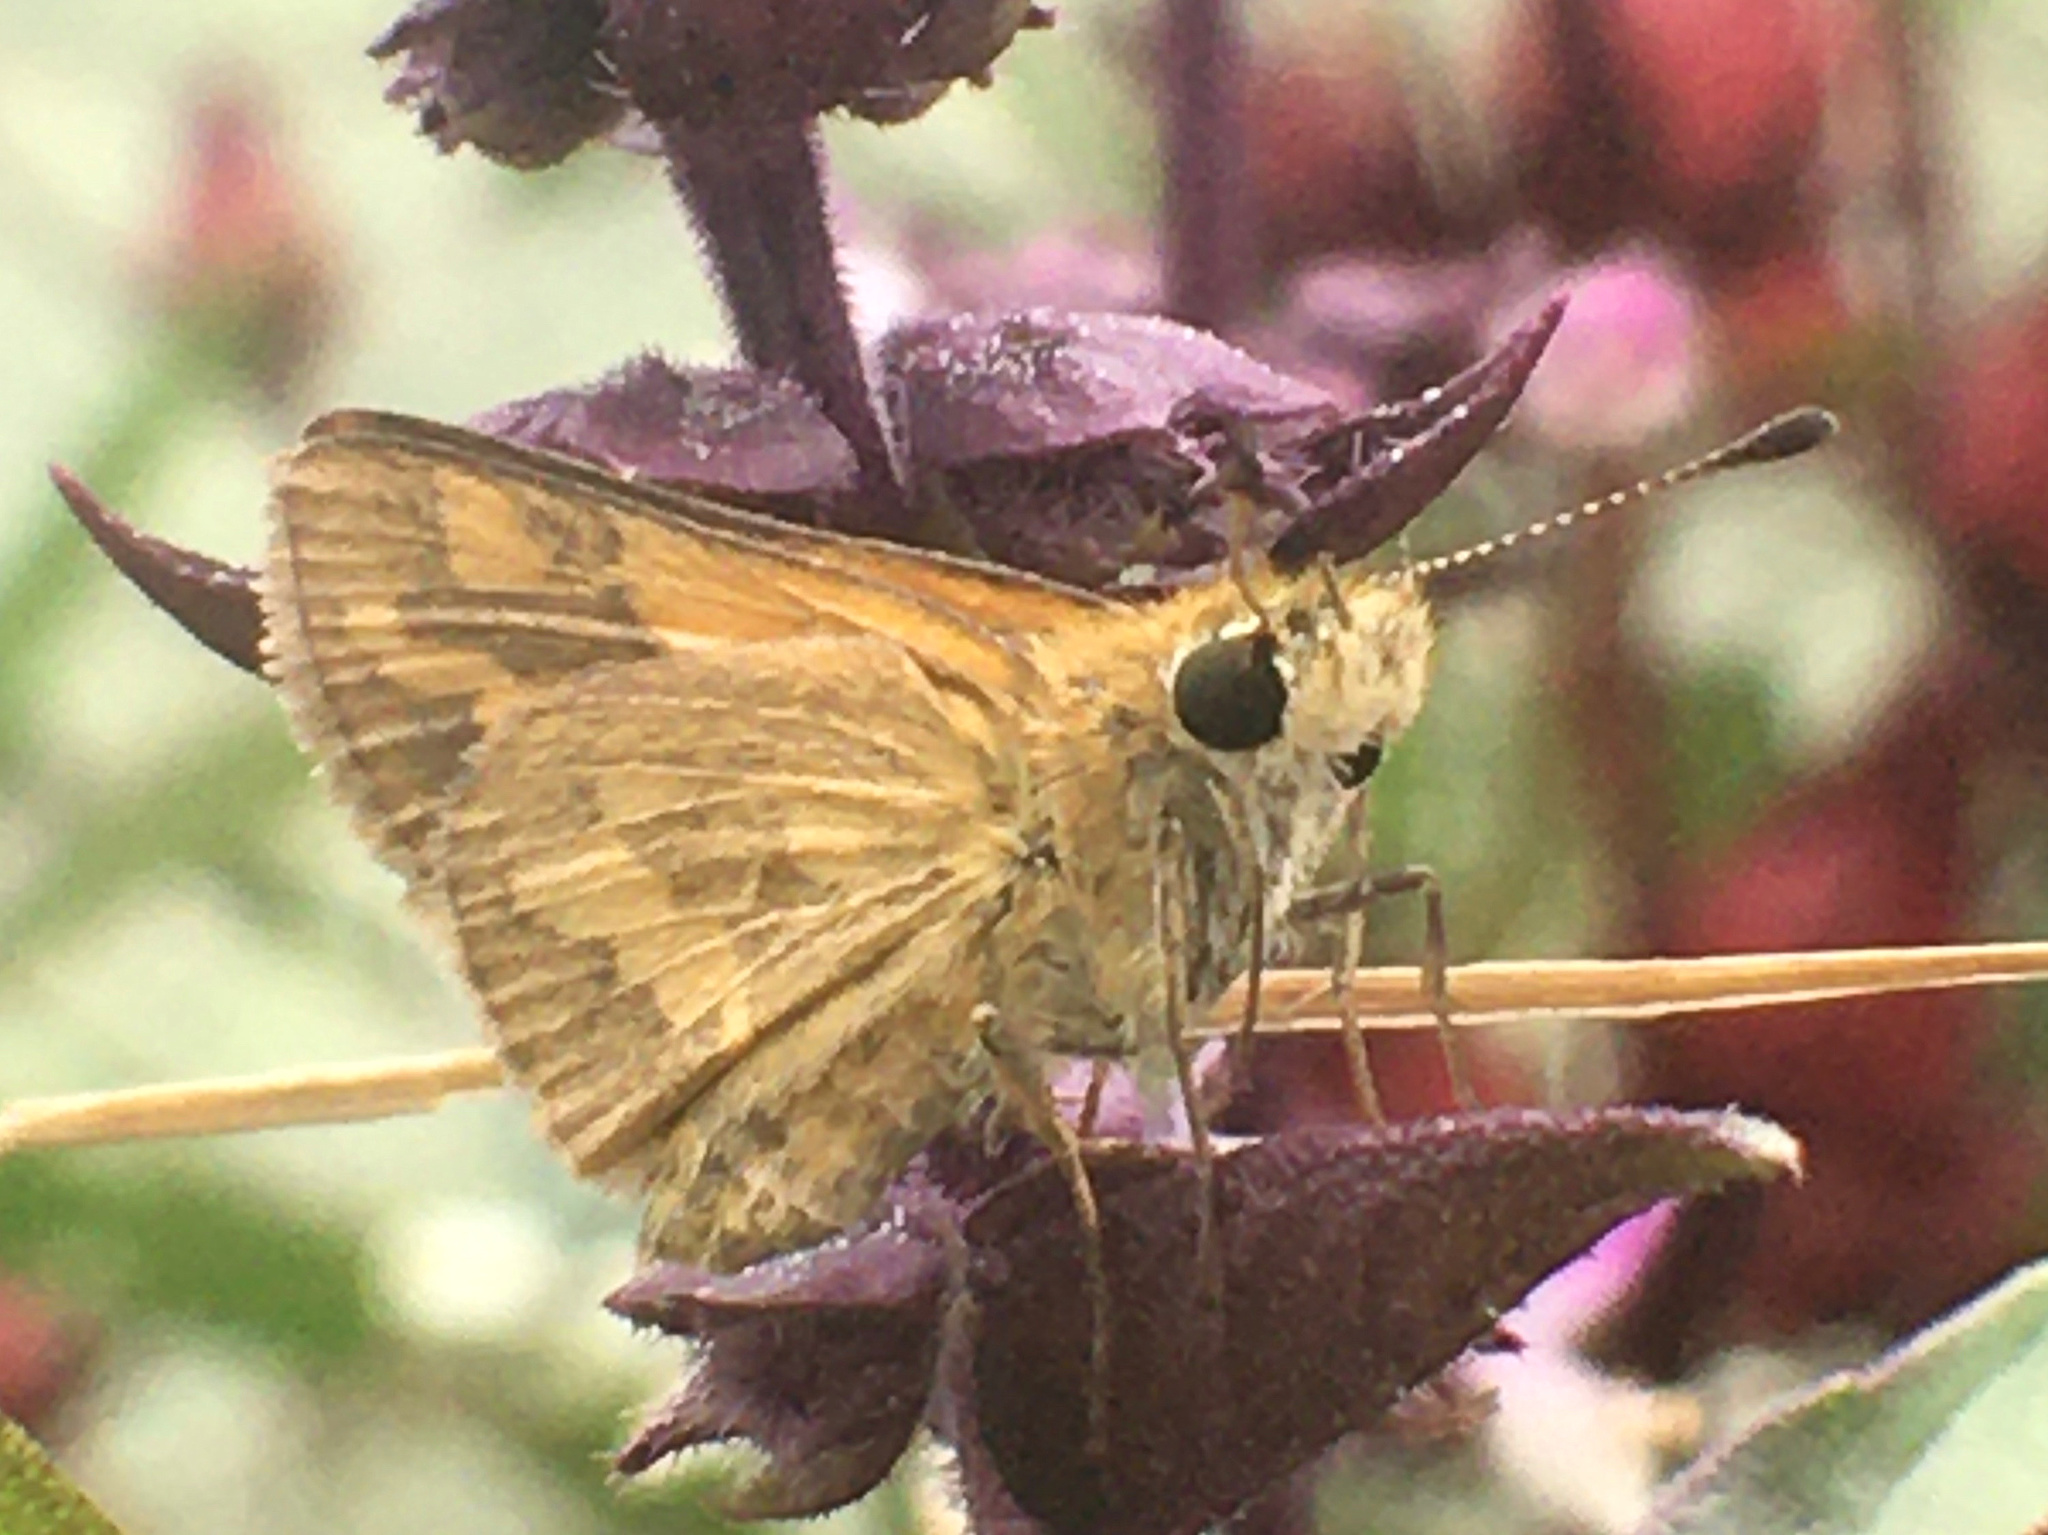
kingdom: Animalia
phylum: Arthropoda
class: Insecta
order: Lepidoptera
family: Hesperiidae
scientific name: Hesperiidae
